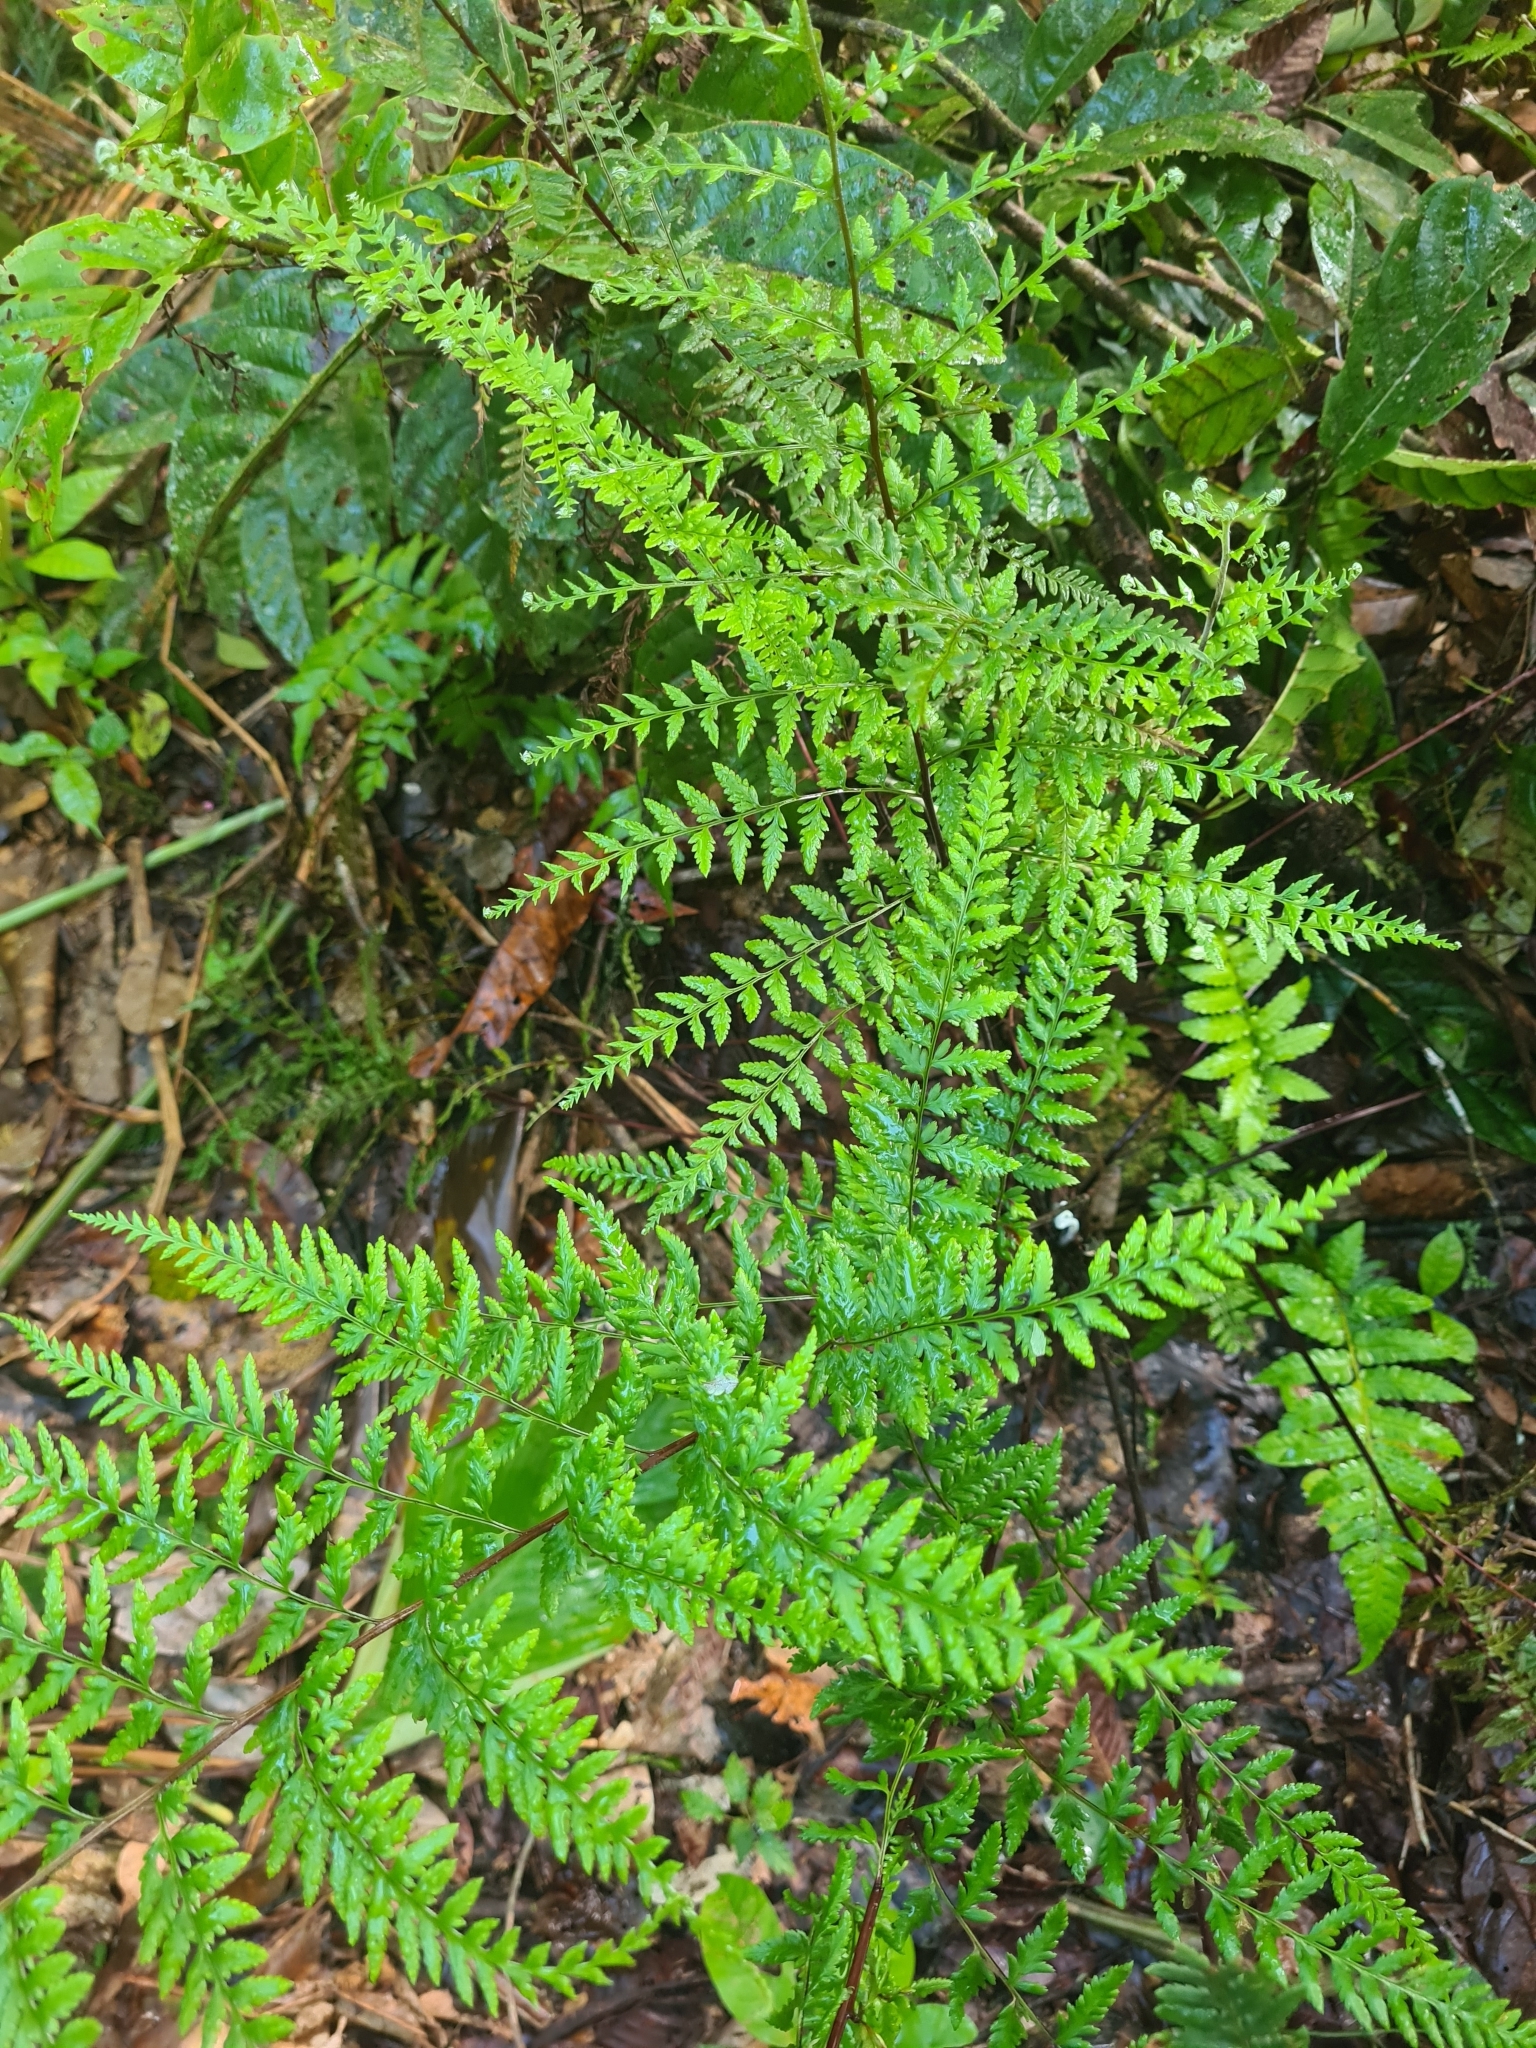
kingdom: Plantae
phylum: Tracheophyta
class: Polypodiopsida
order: Polypodiales
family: Pteridaceae
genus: Pityrogramma
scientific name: Pityrogramma calomelanos
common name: Dixie silverback fern
